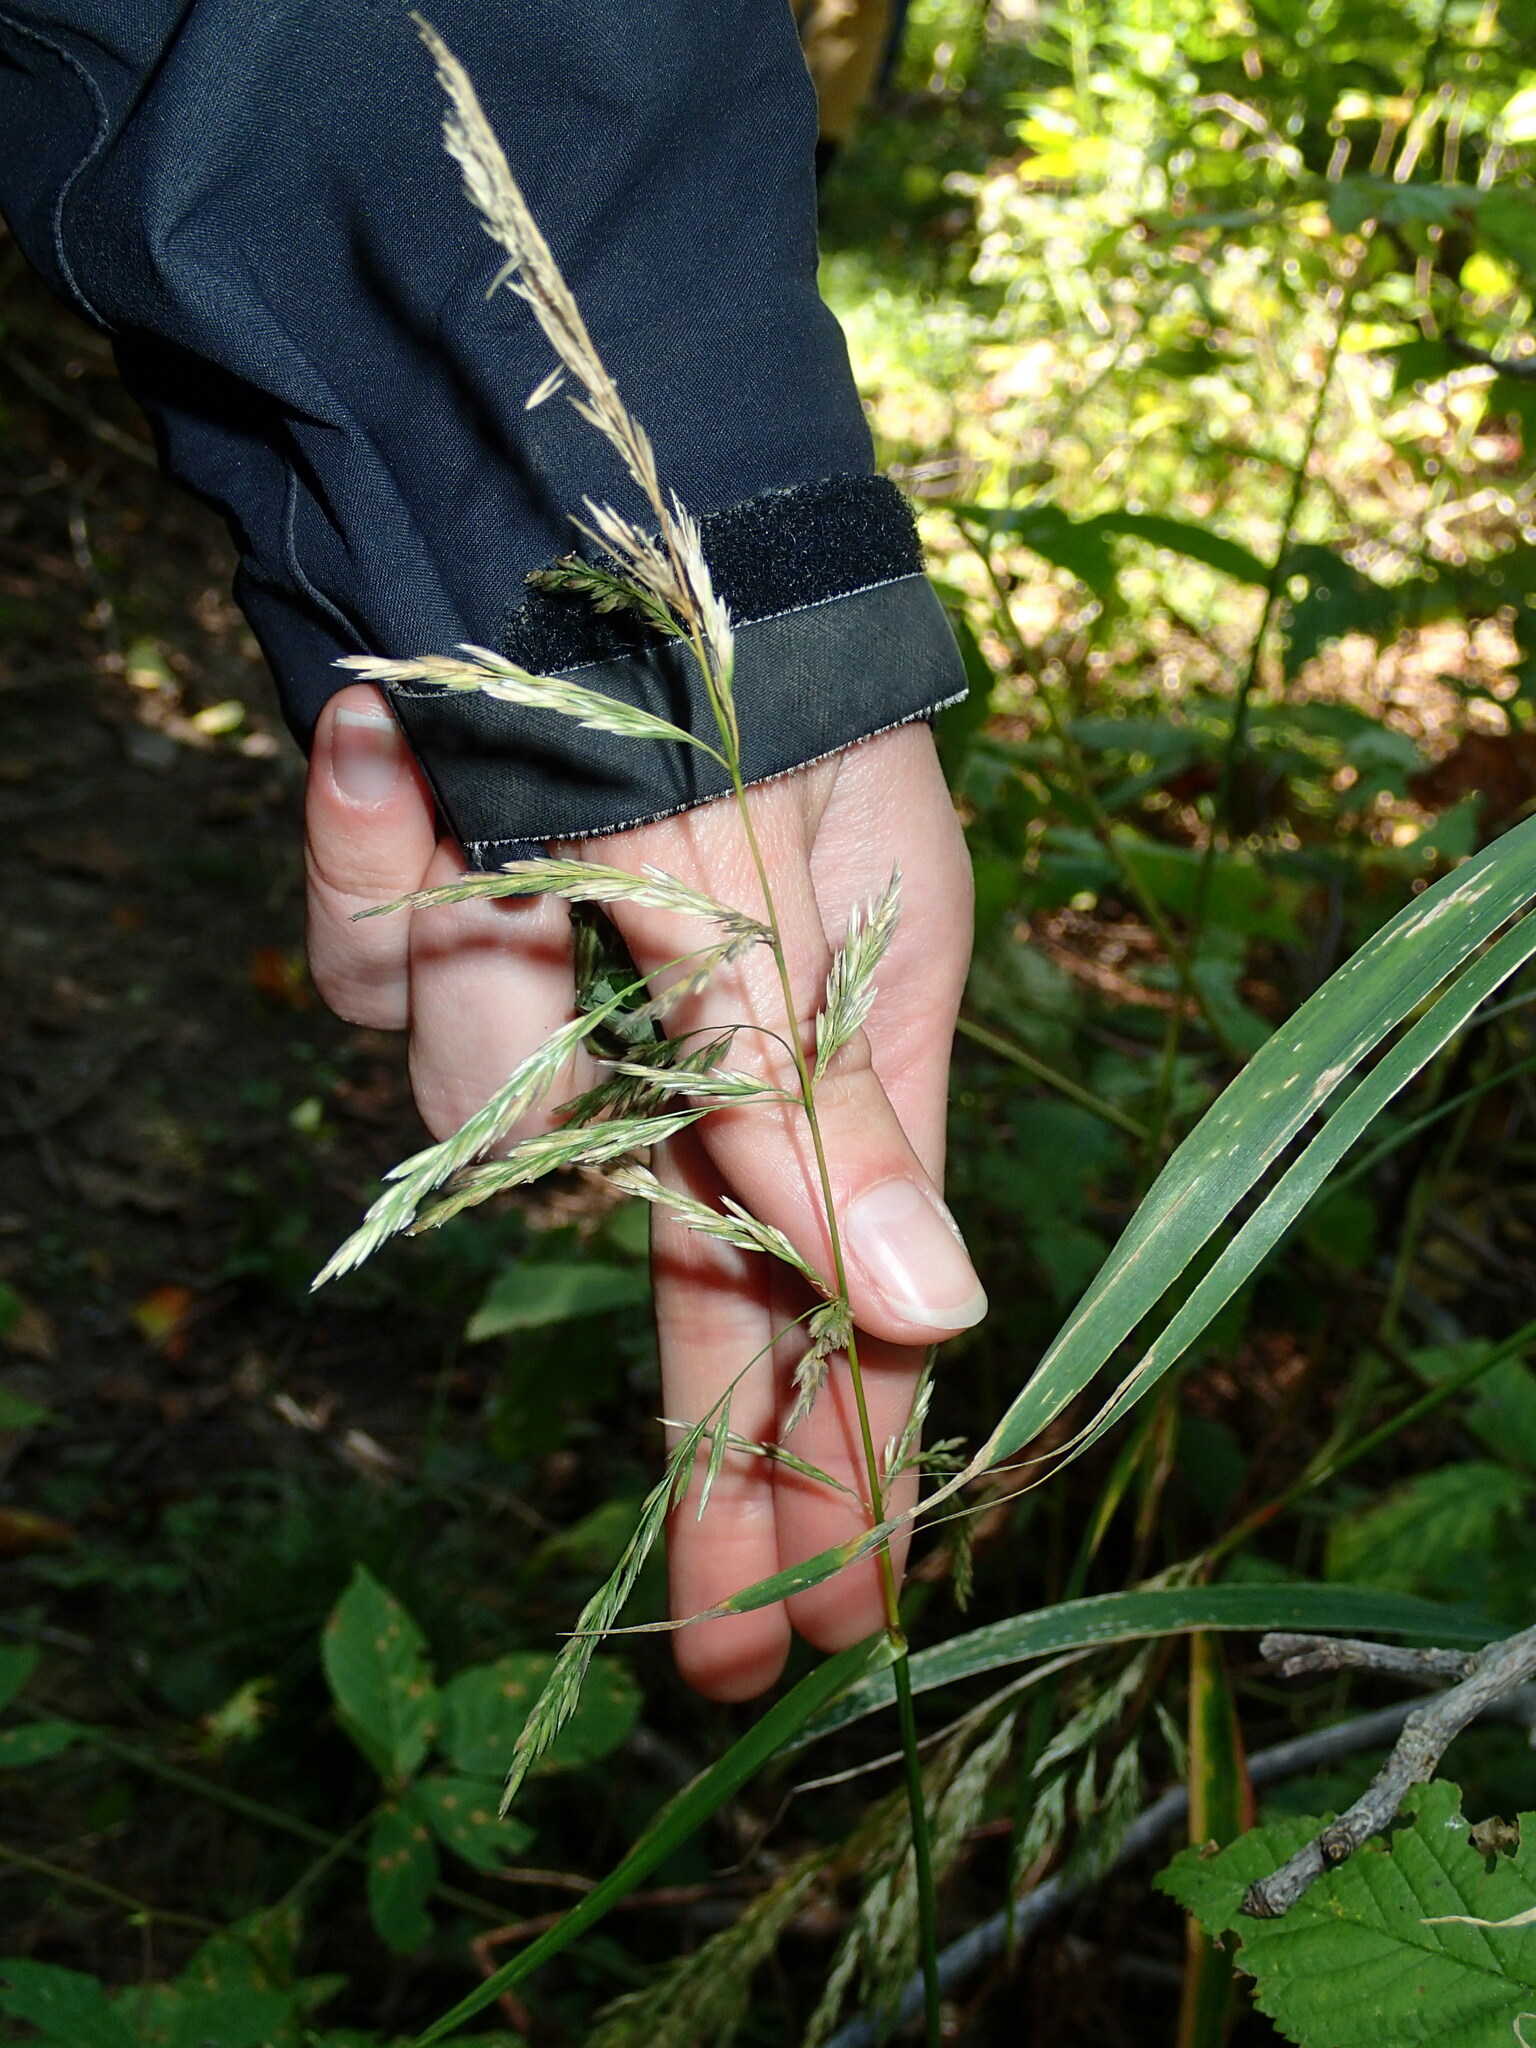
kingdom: Plantae
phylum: Tracheophyta
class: Liliopsida
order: Poales
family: Poaceae
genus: Cinna
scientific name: Cinna arundinacea
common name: Stout woodreed
